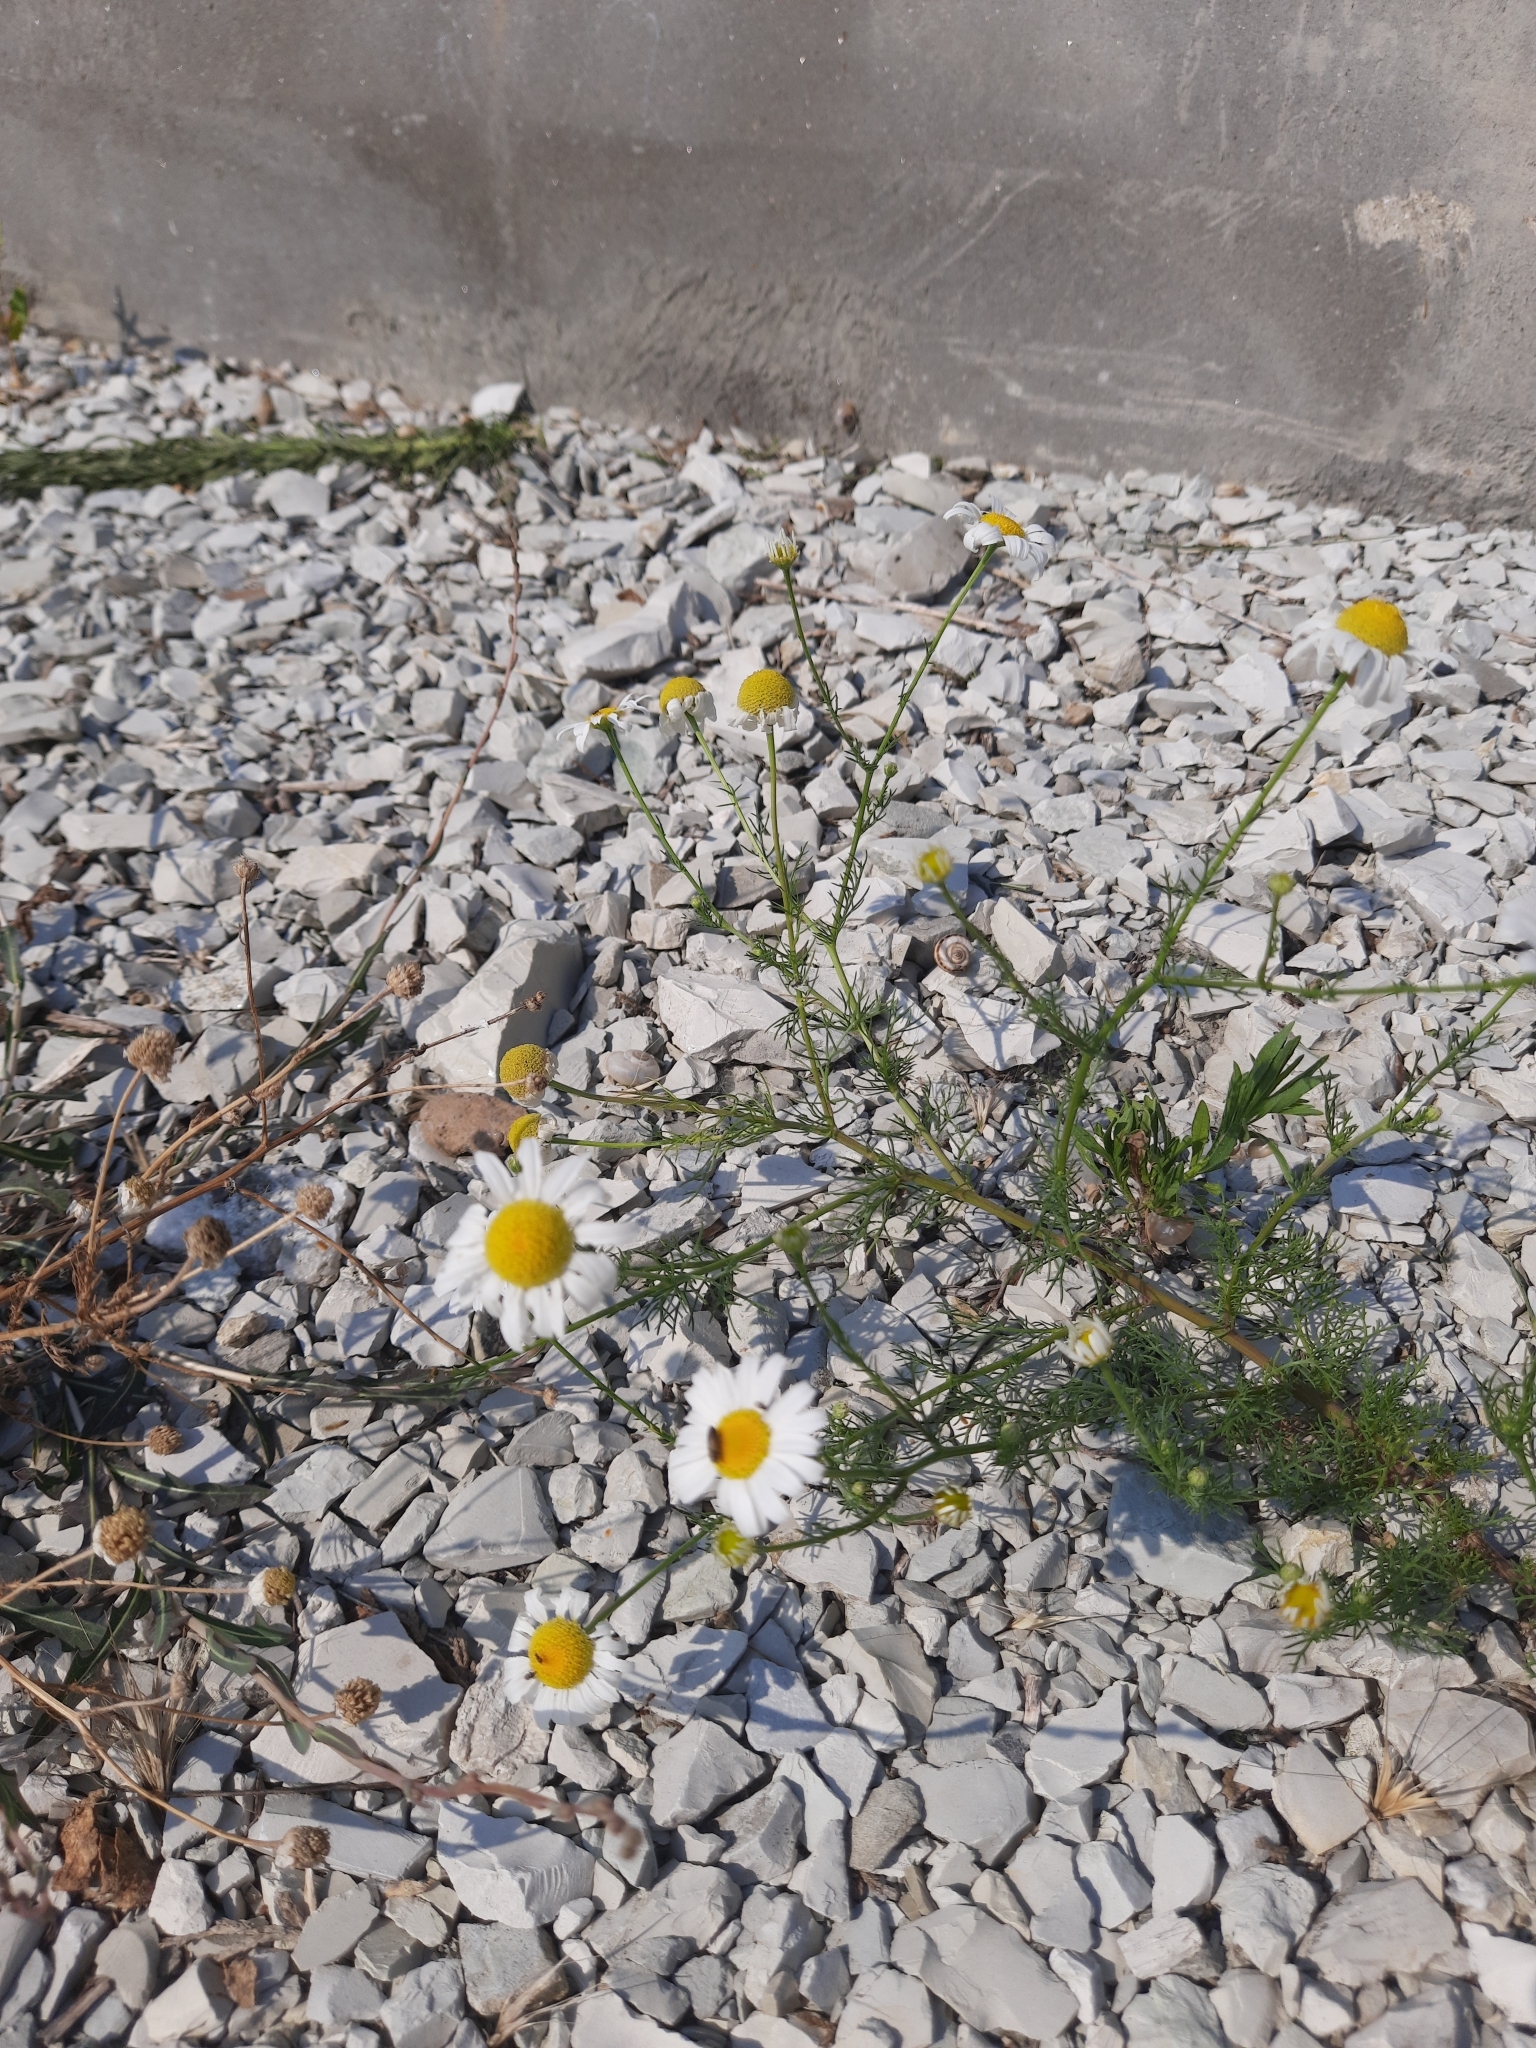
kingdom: Plantae
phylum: Tracheophyta
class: Magnoliopsida
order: Asterales
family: Asteraceae
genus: Tripleurospermum
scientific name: Tripleurospermum inodorum
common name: Scentless mayweed
